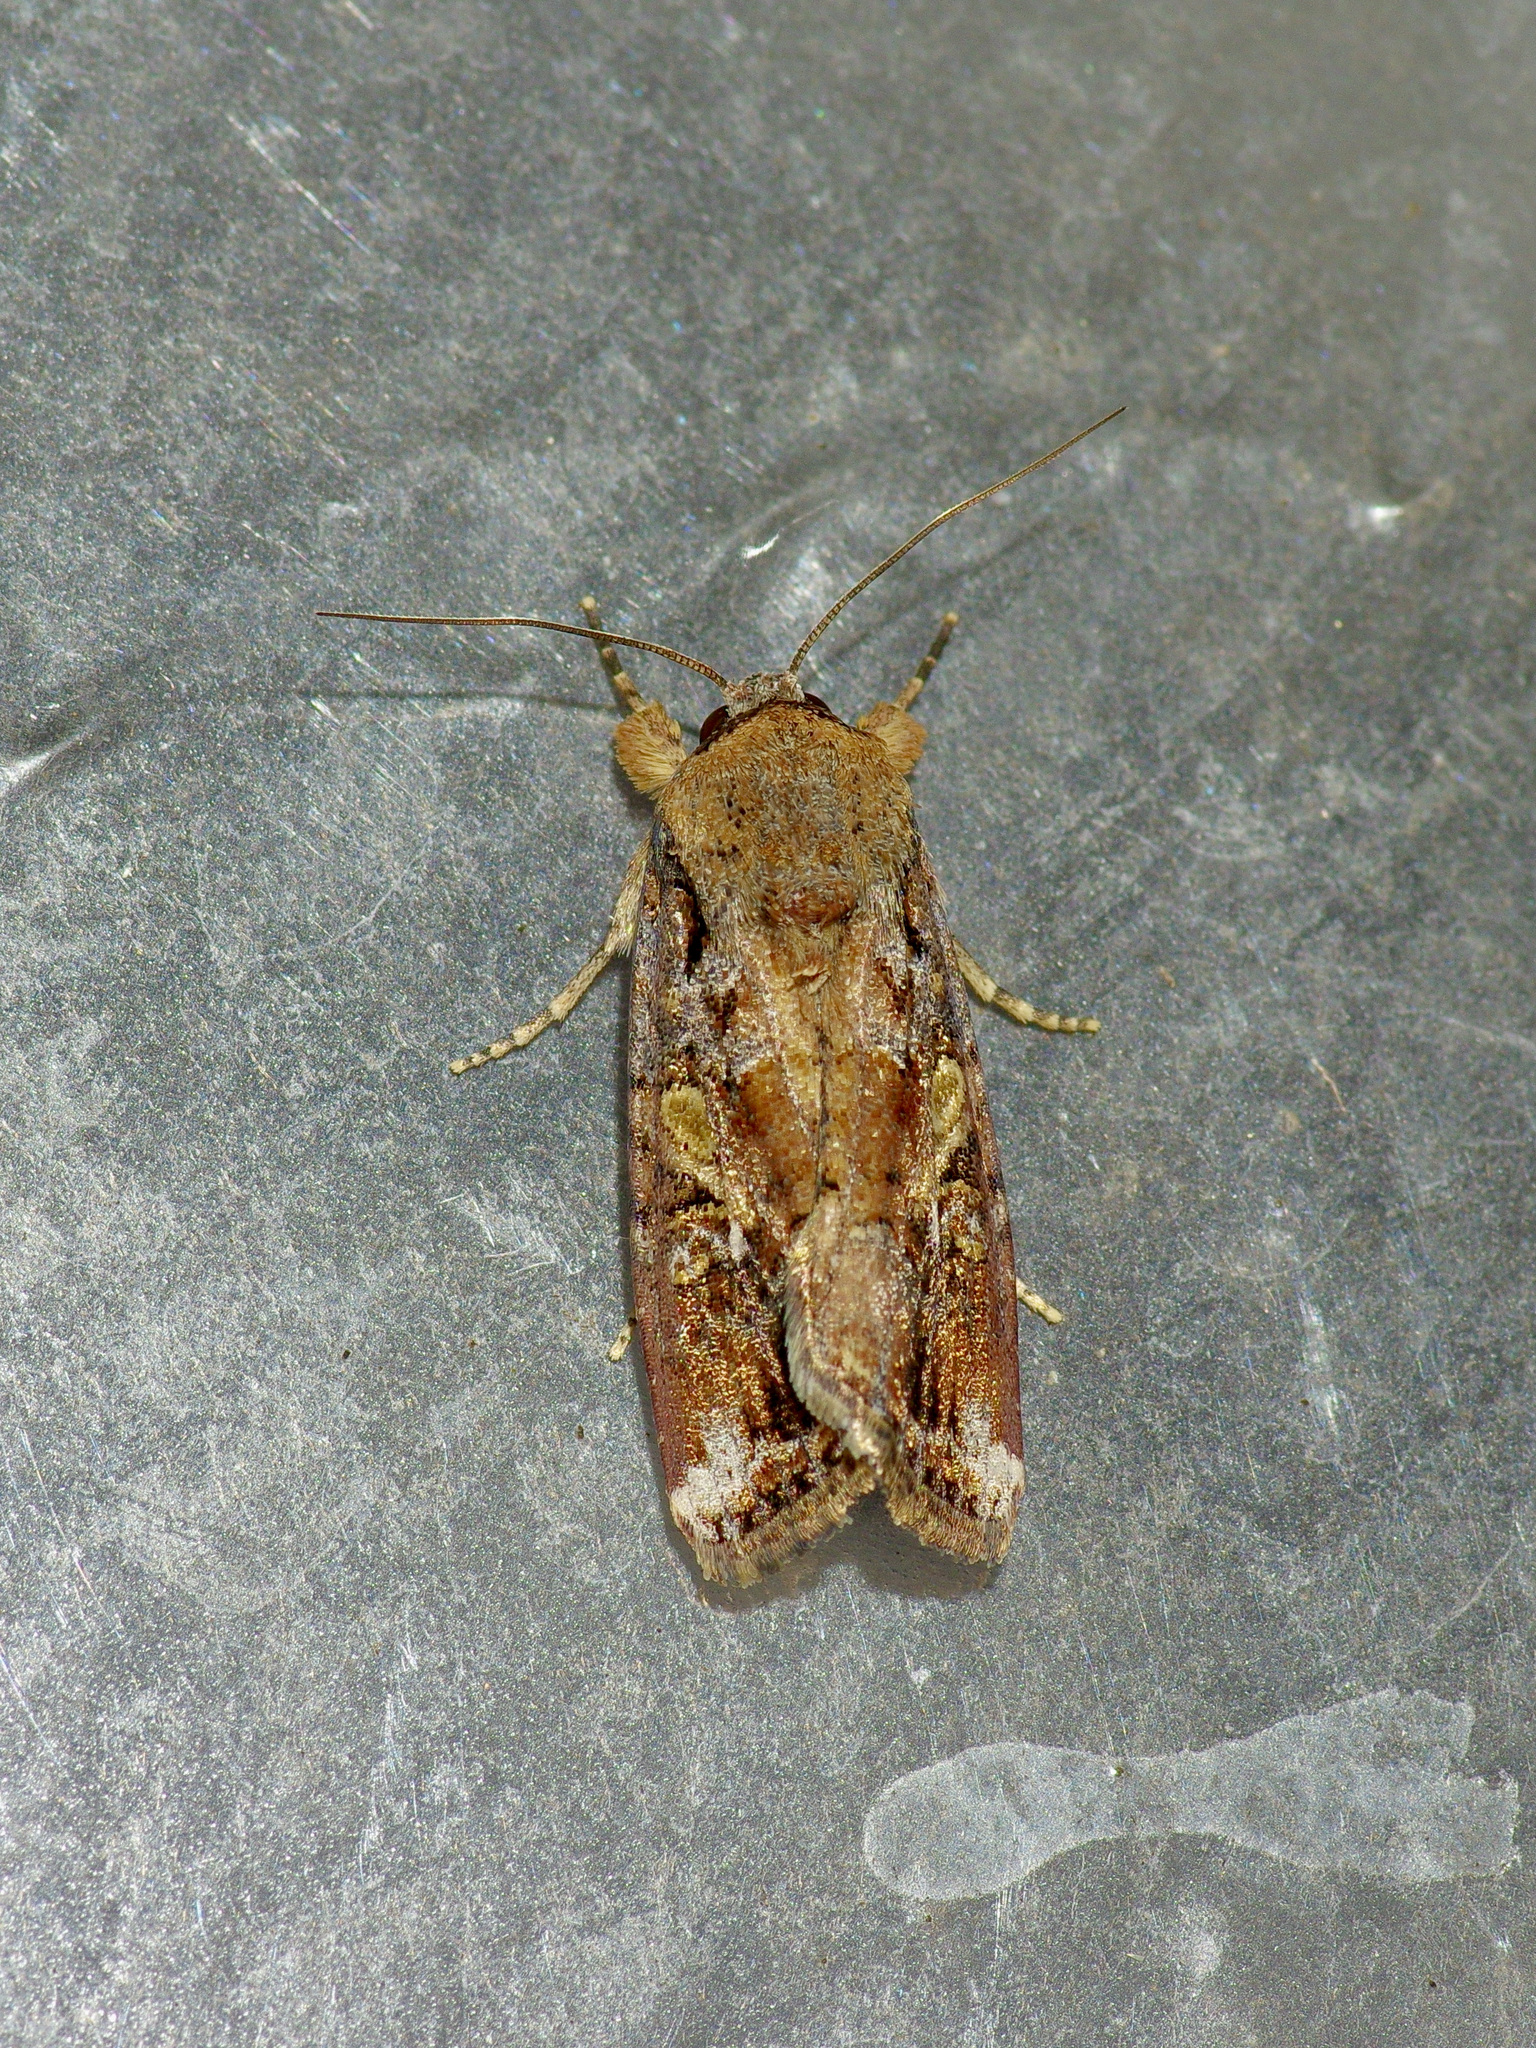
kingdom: Animalia
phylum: Arthropoda
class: Insecta
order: Lepidoptera
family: Noctuidae
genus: Spodoptera
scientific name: Spodoptera frugiperda
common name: Fall armyworm
